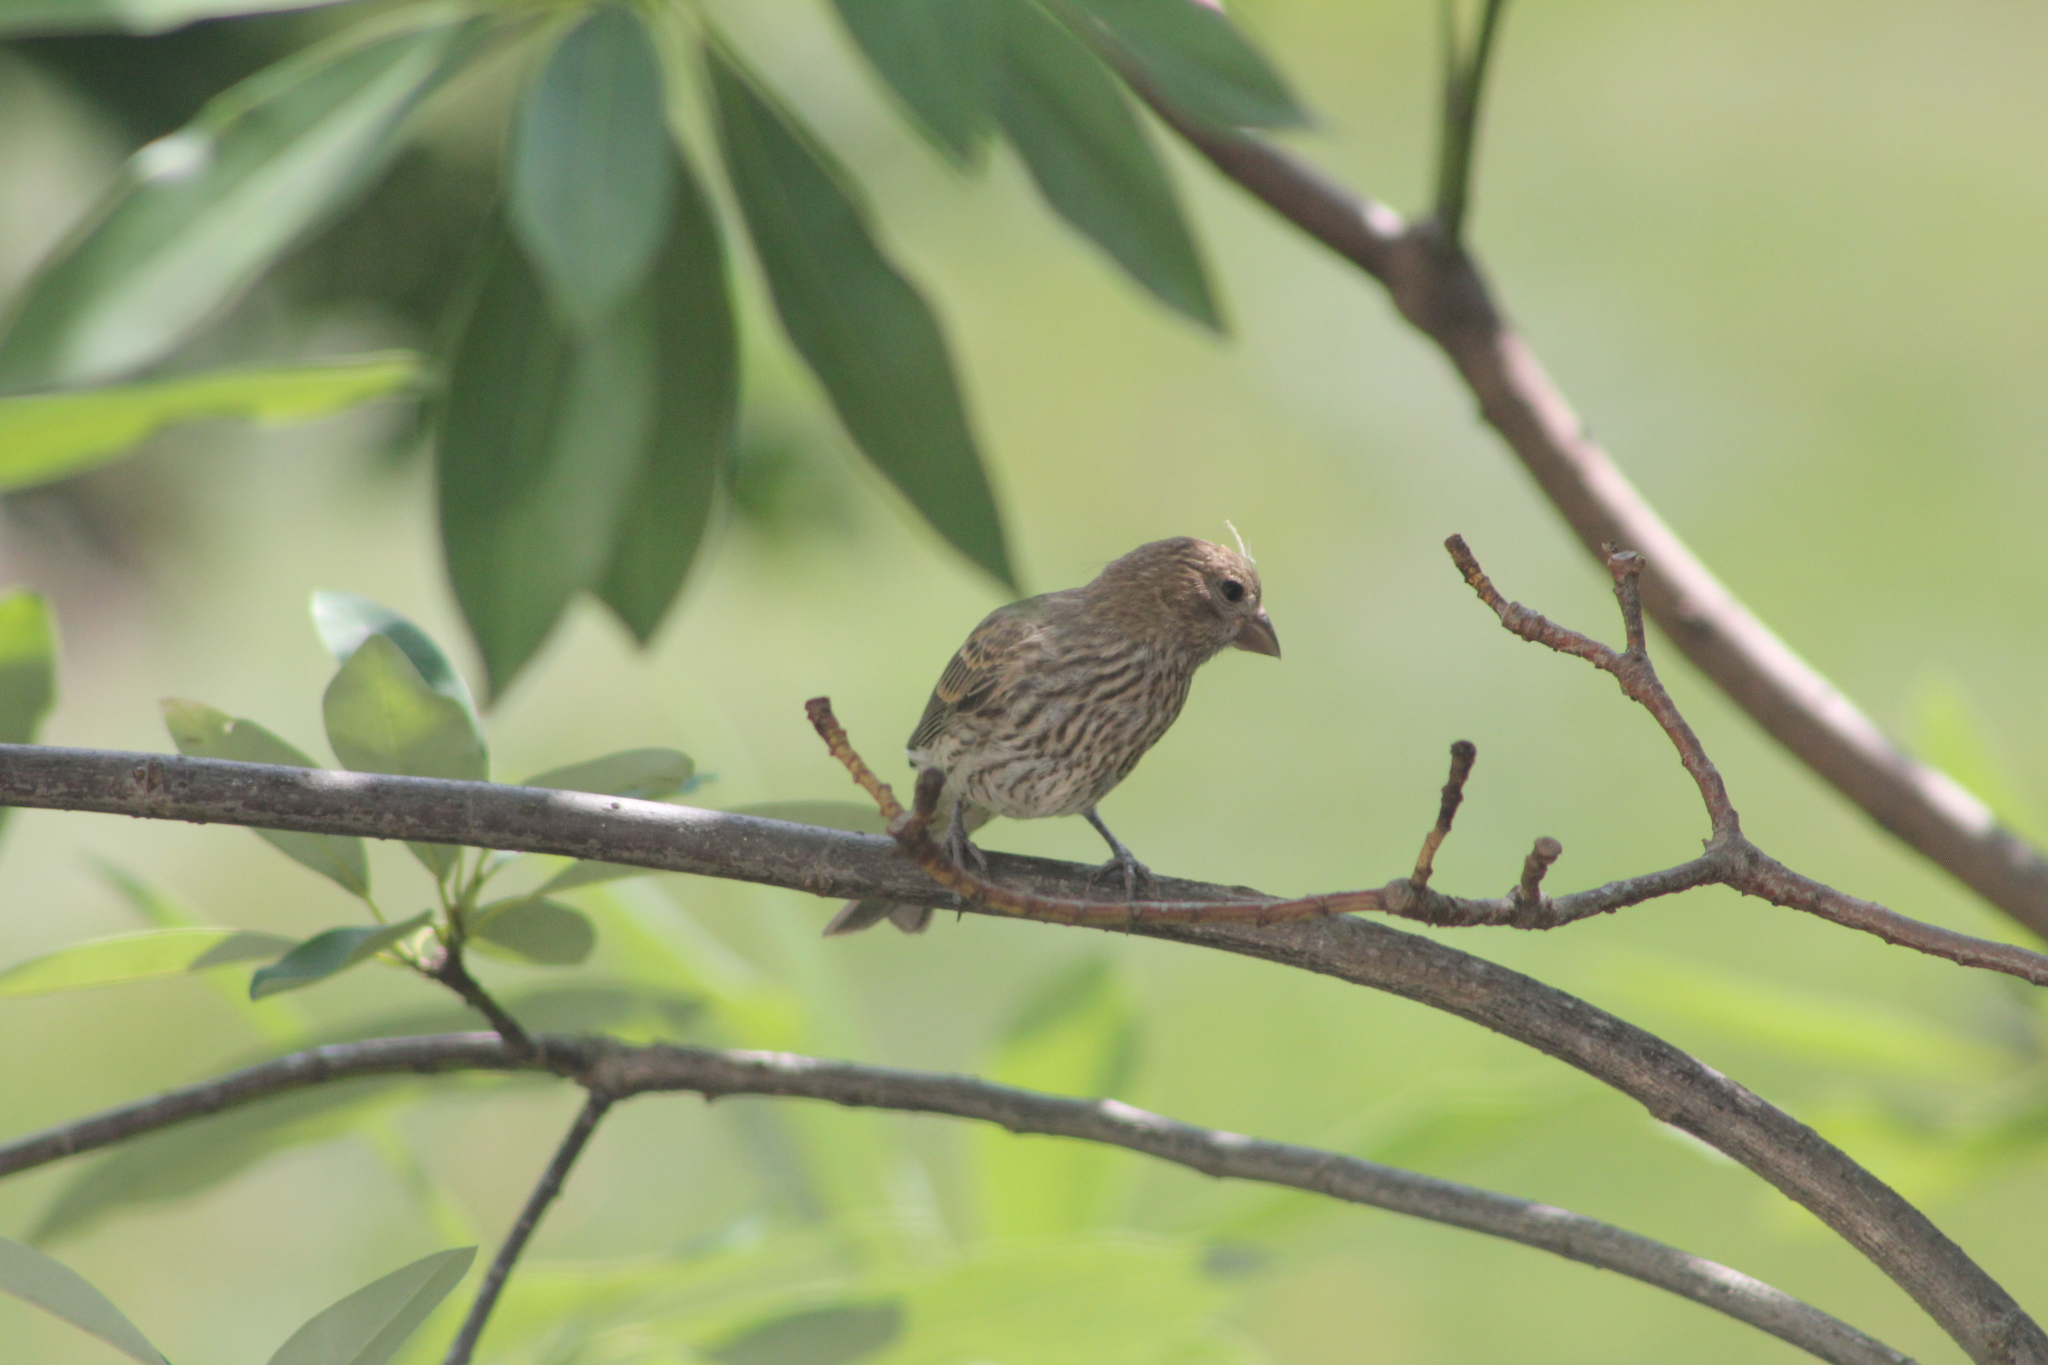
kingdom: Animalia
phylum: Chordata
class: Aves
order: Passeriformes
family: Fringillidae
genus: Haemorhous
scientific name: Haemorhous mexicanus
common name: House finch
